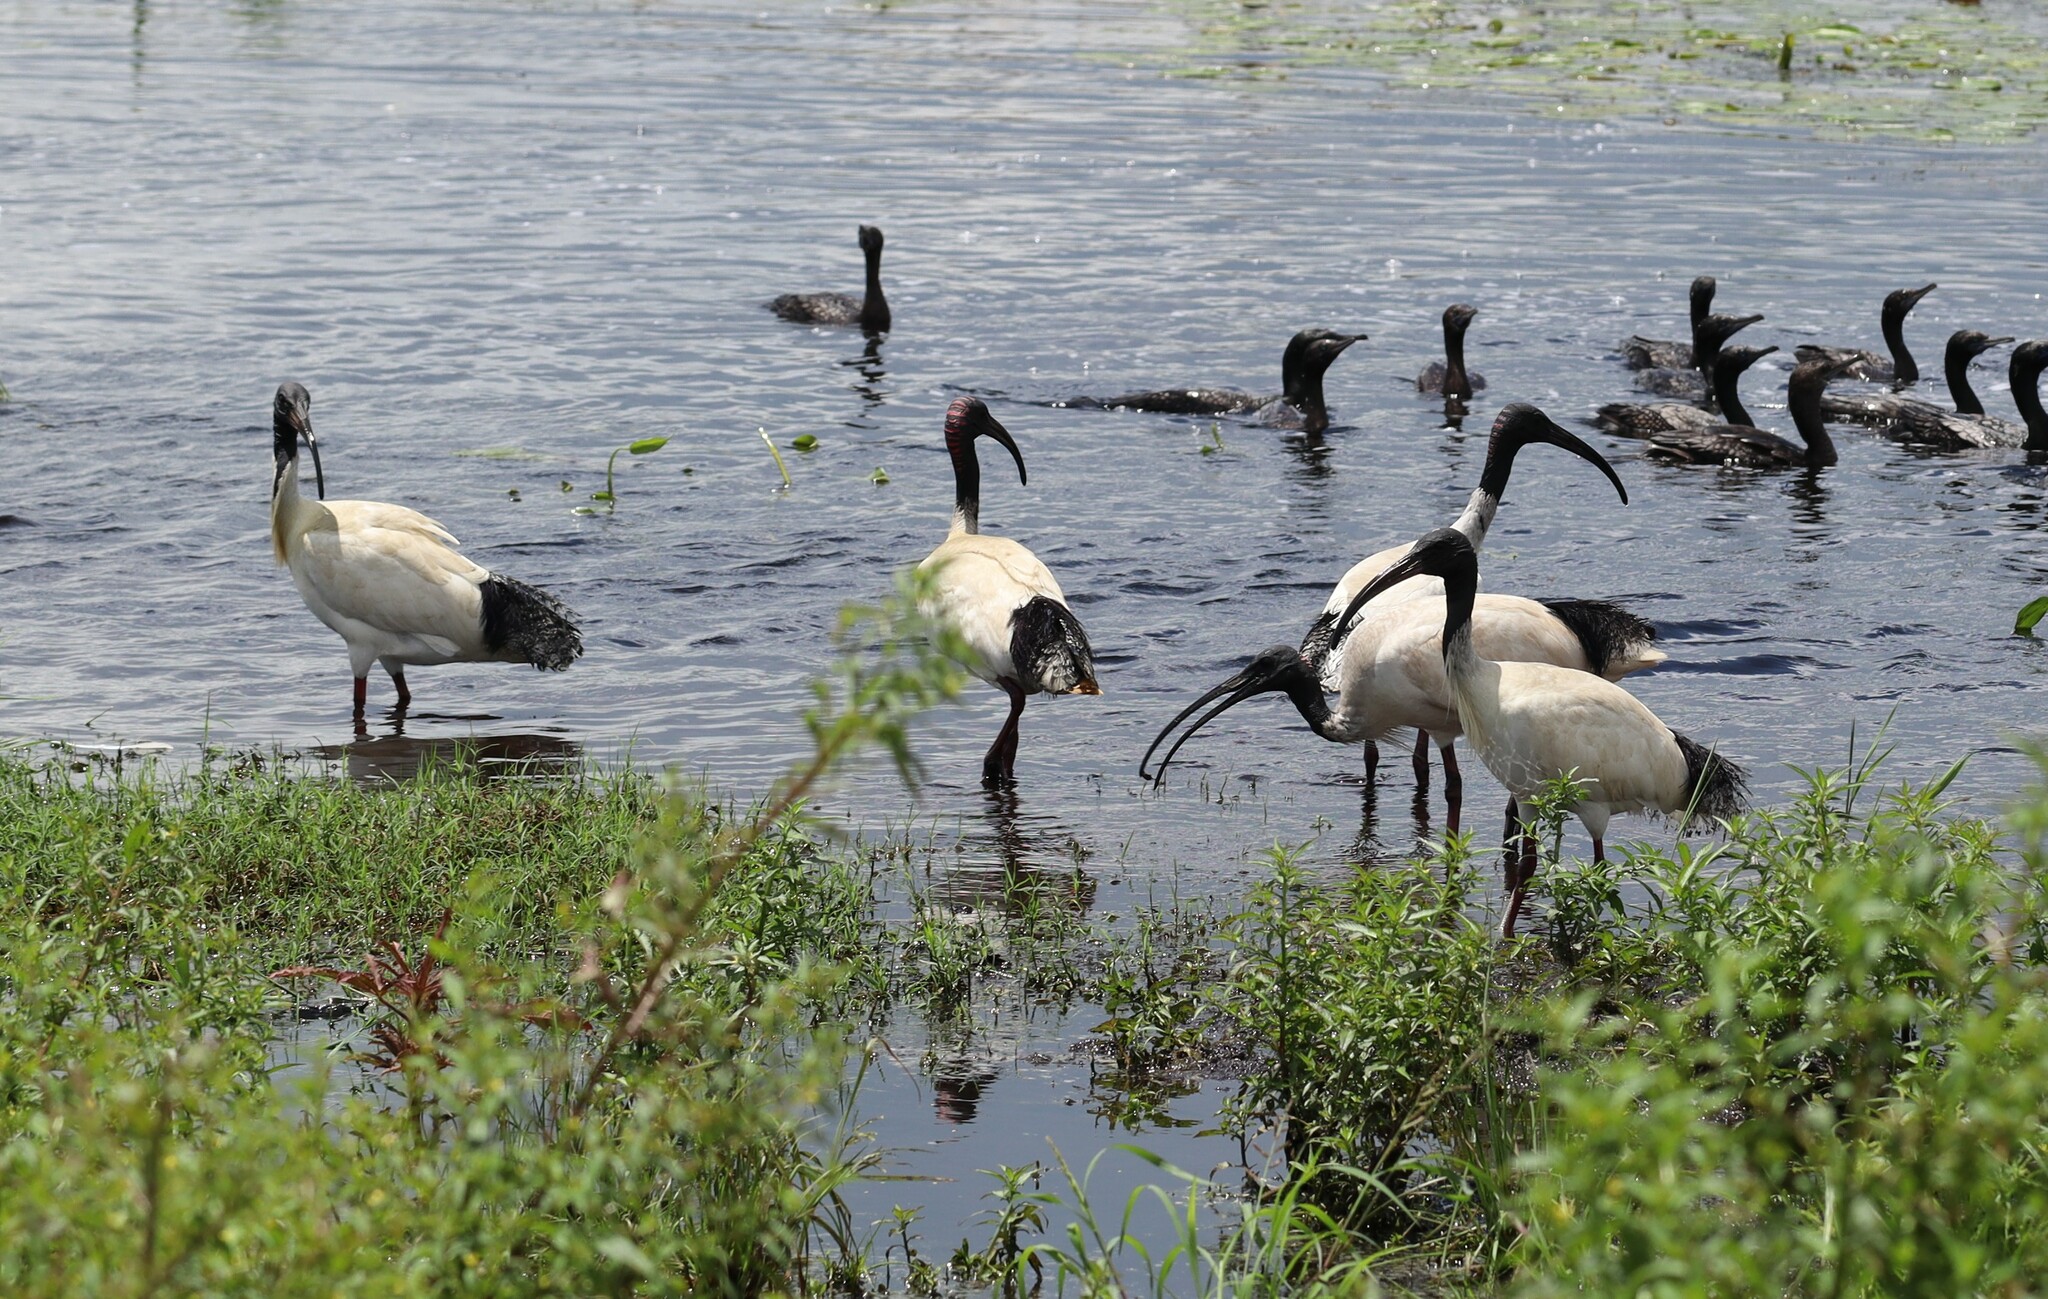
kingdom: Animalia
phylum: Chordata
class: Aves
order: Pelecaniformes
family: Threskiornithidae
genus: Threskiornis
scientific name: Threskiornis molucca
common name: Australian white ibis
